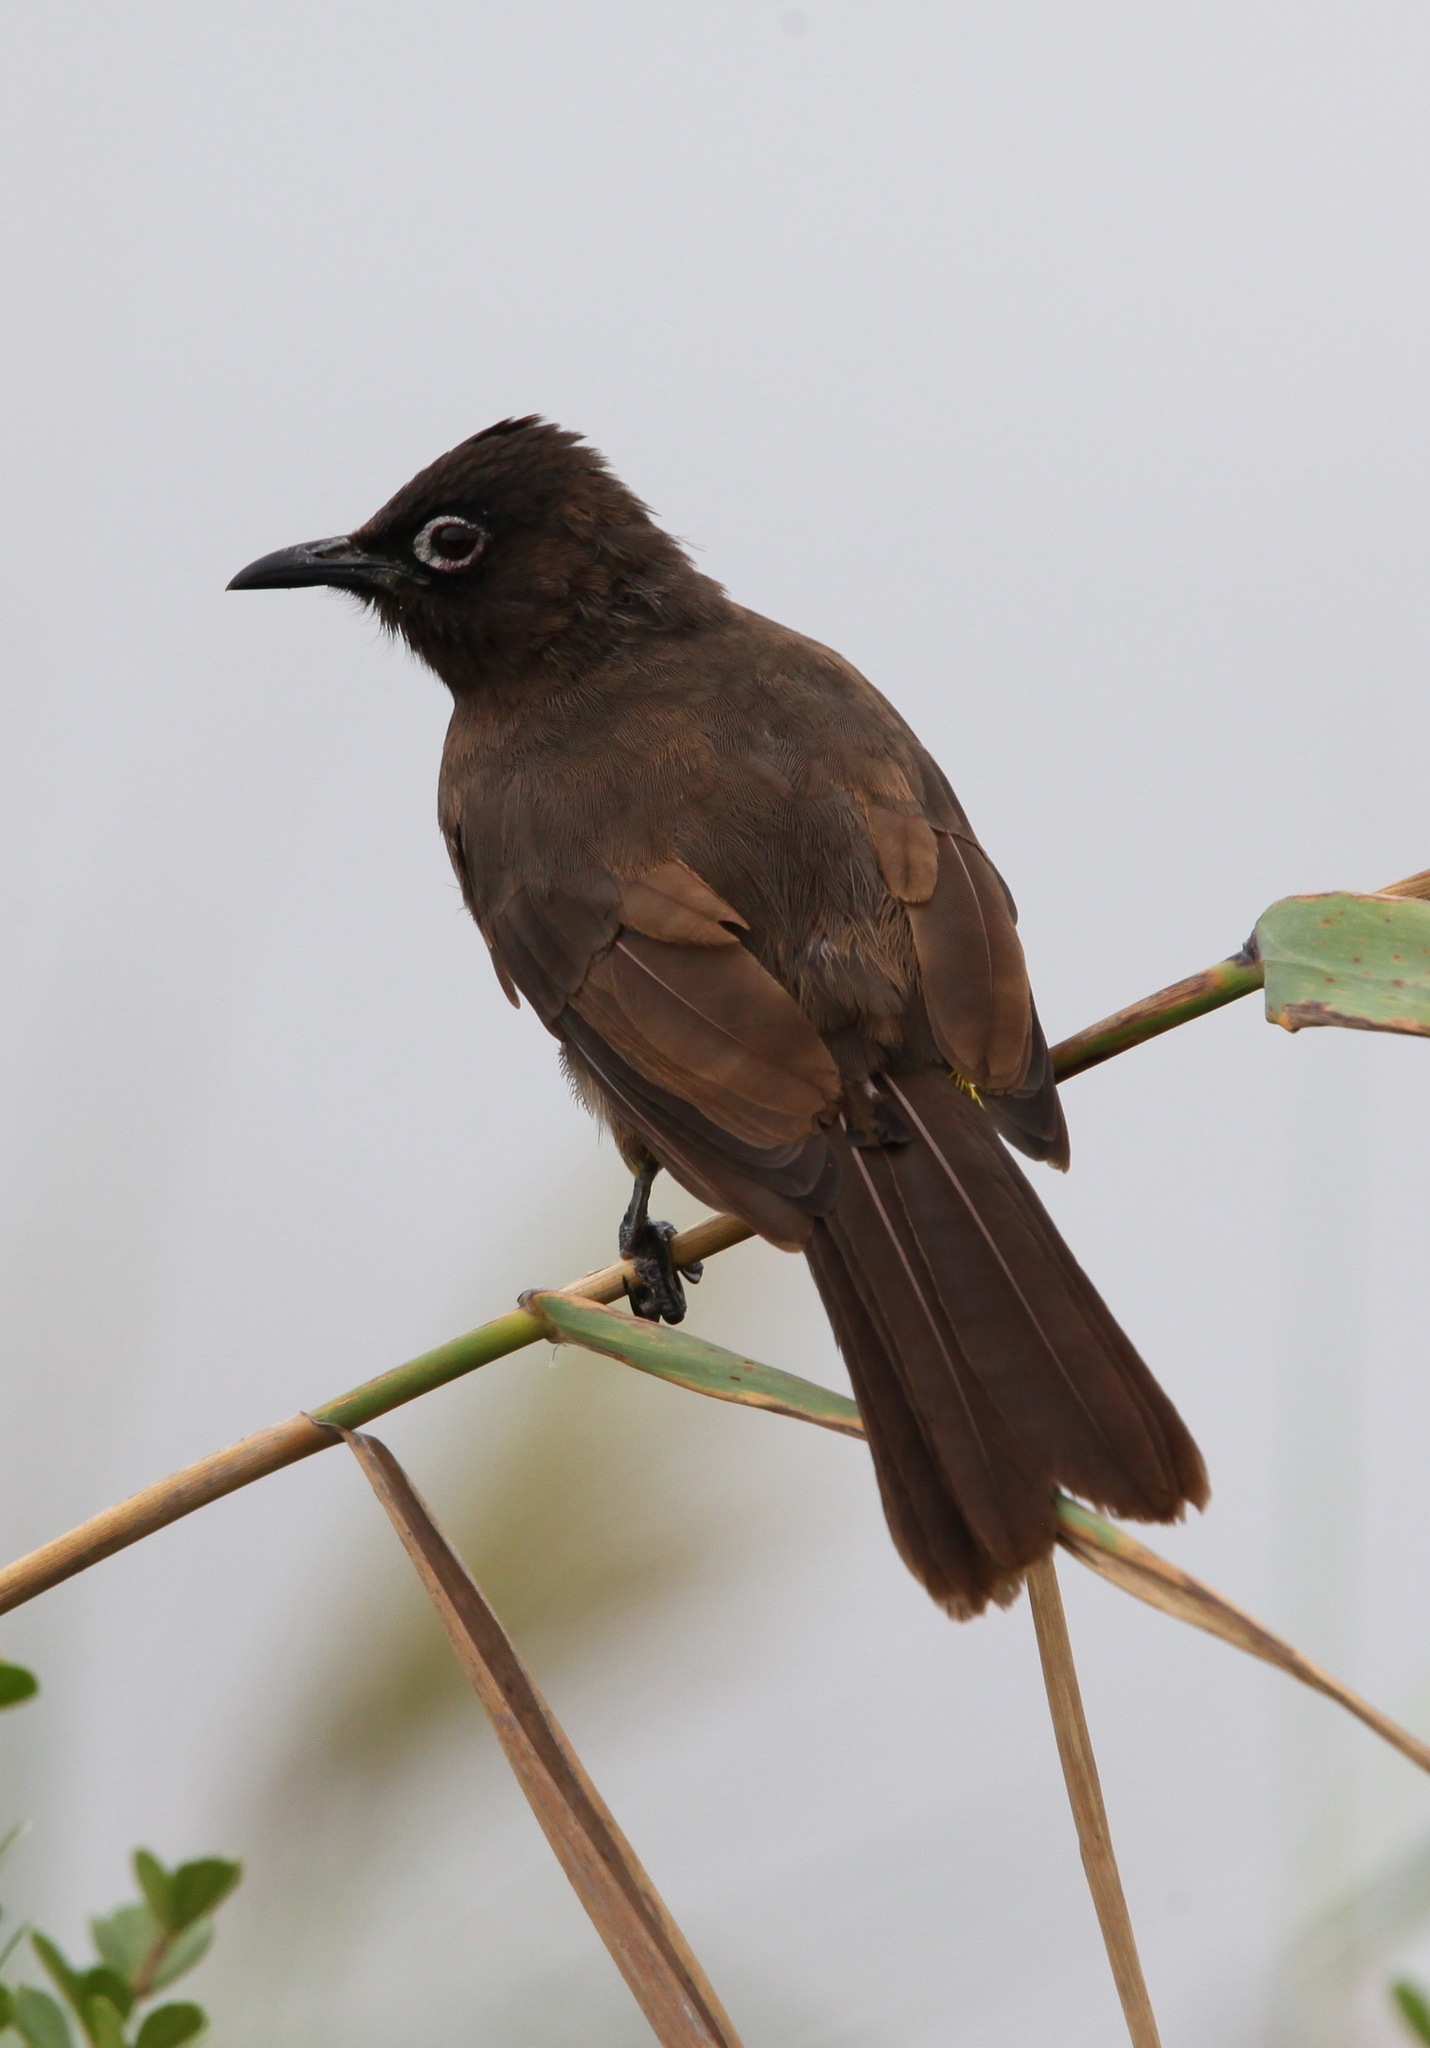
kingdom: Animalia
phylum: Chordata
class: Aves
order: Passeriformes
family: Pycnonotidae
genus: Pycnonotus
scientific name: Pycnonotus capensis
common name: Cape bulbul
